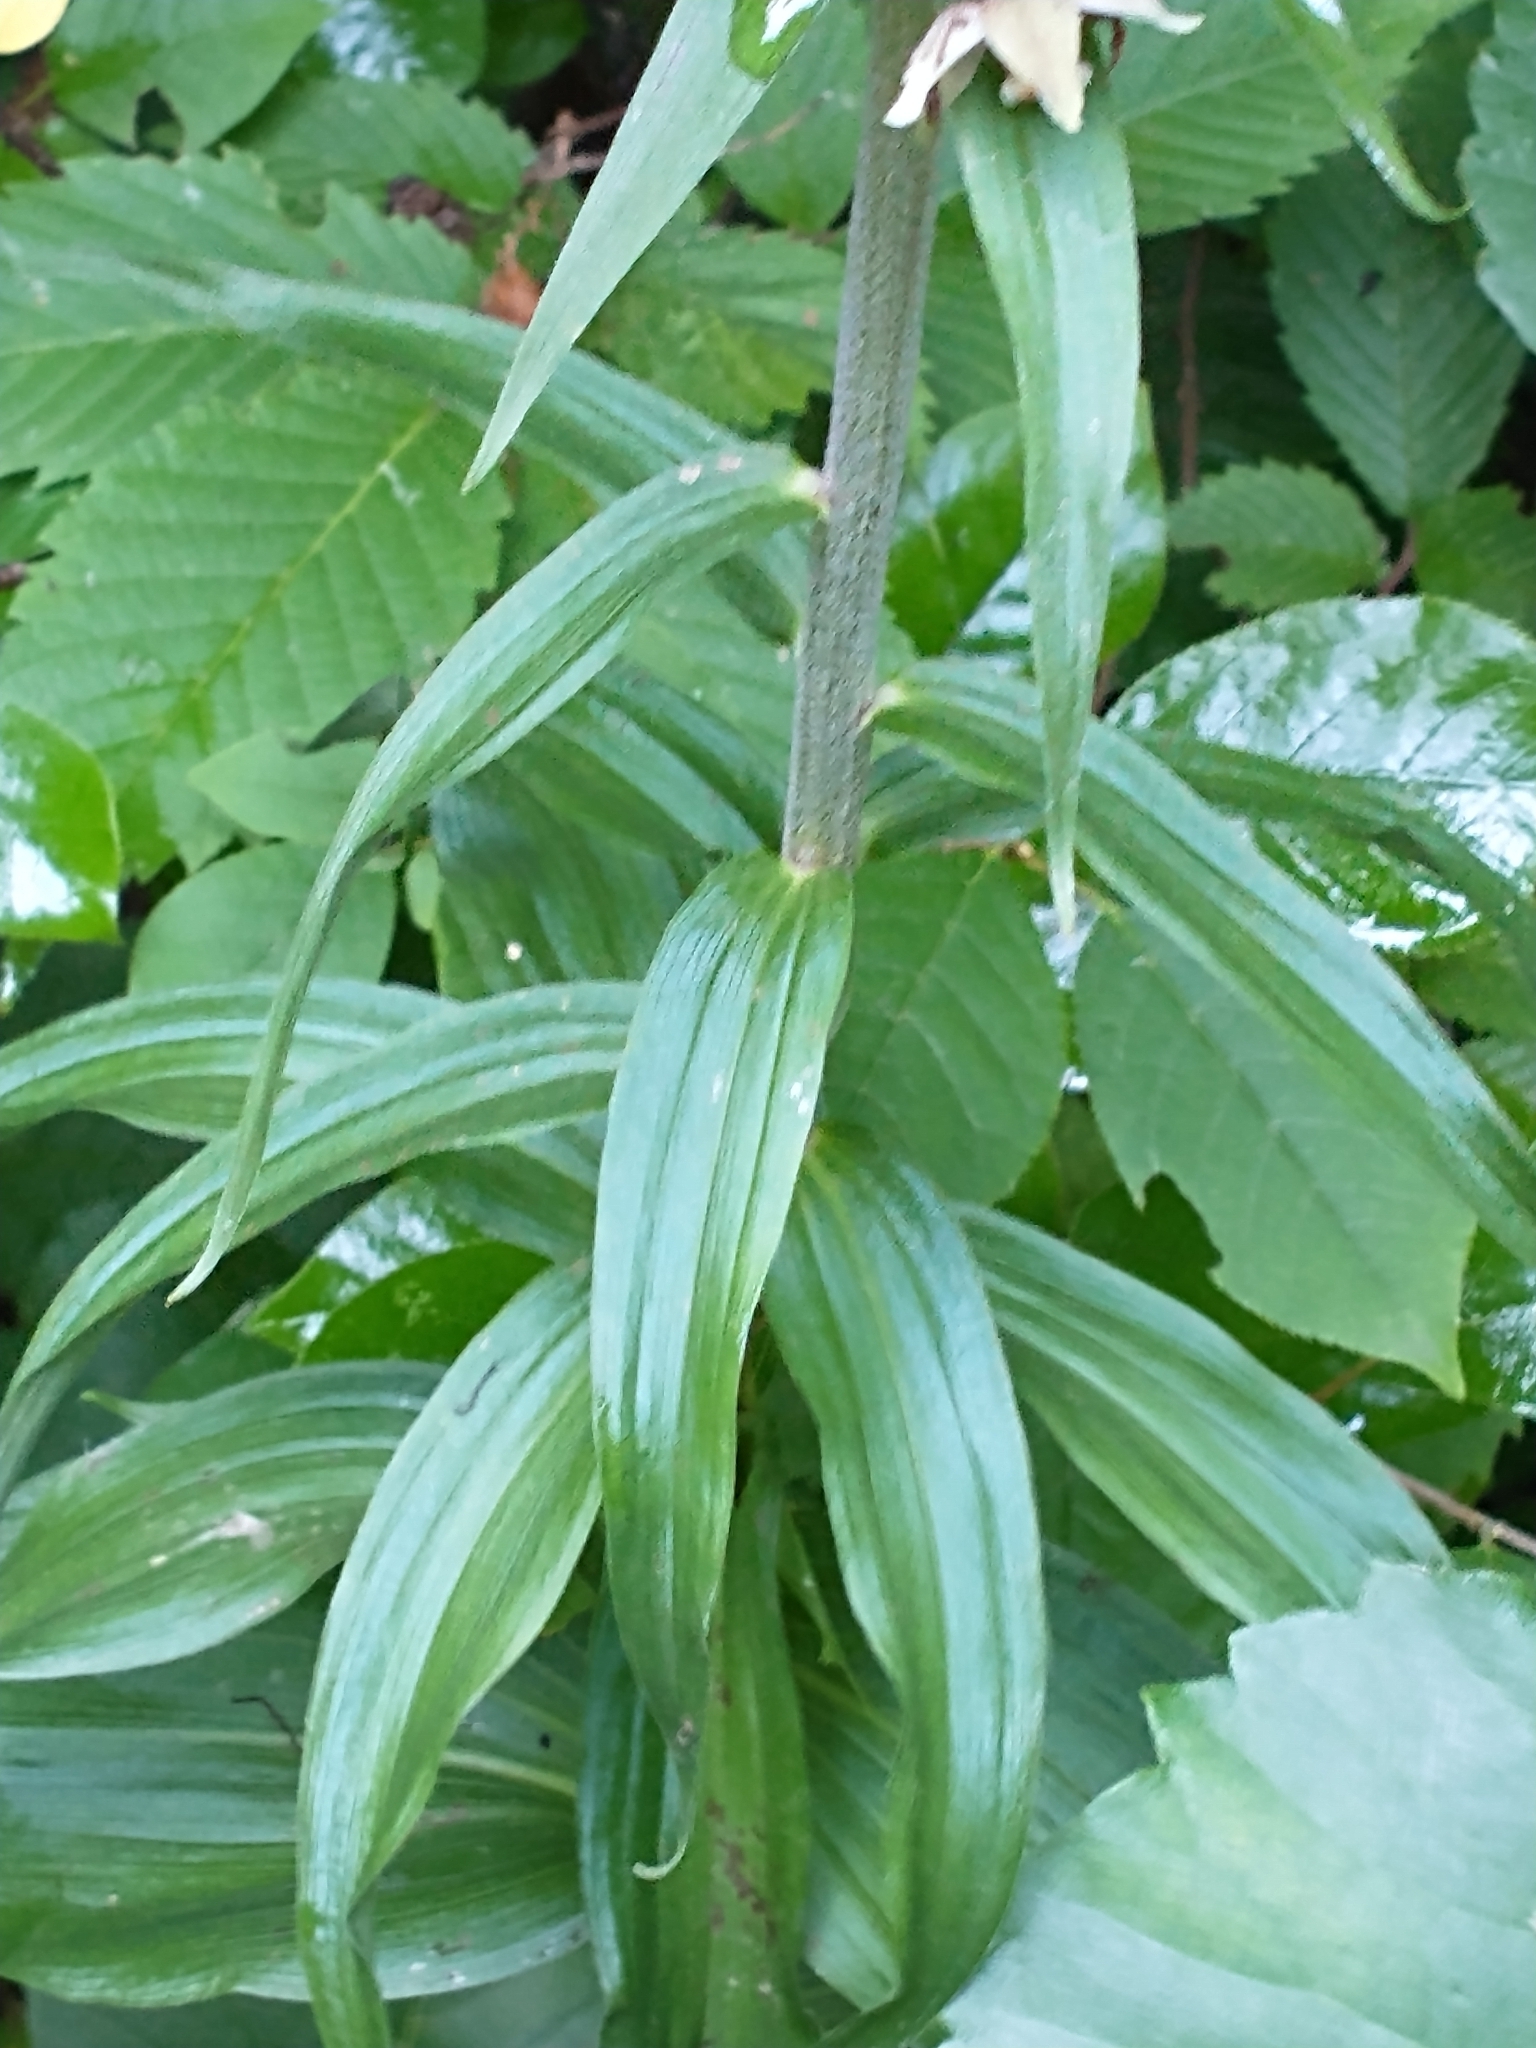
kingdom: Plantae
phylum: Tracheophyta
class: Liliopsida
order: Asparagales
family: Orchidaceae
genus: Epipactis
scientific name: Epipactis helleborine
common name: Broad-leaved helleborine
